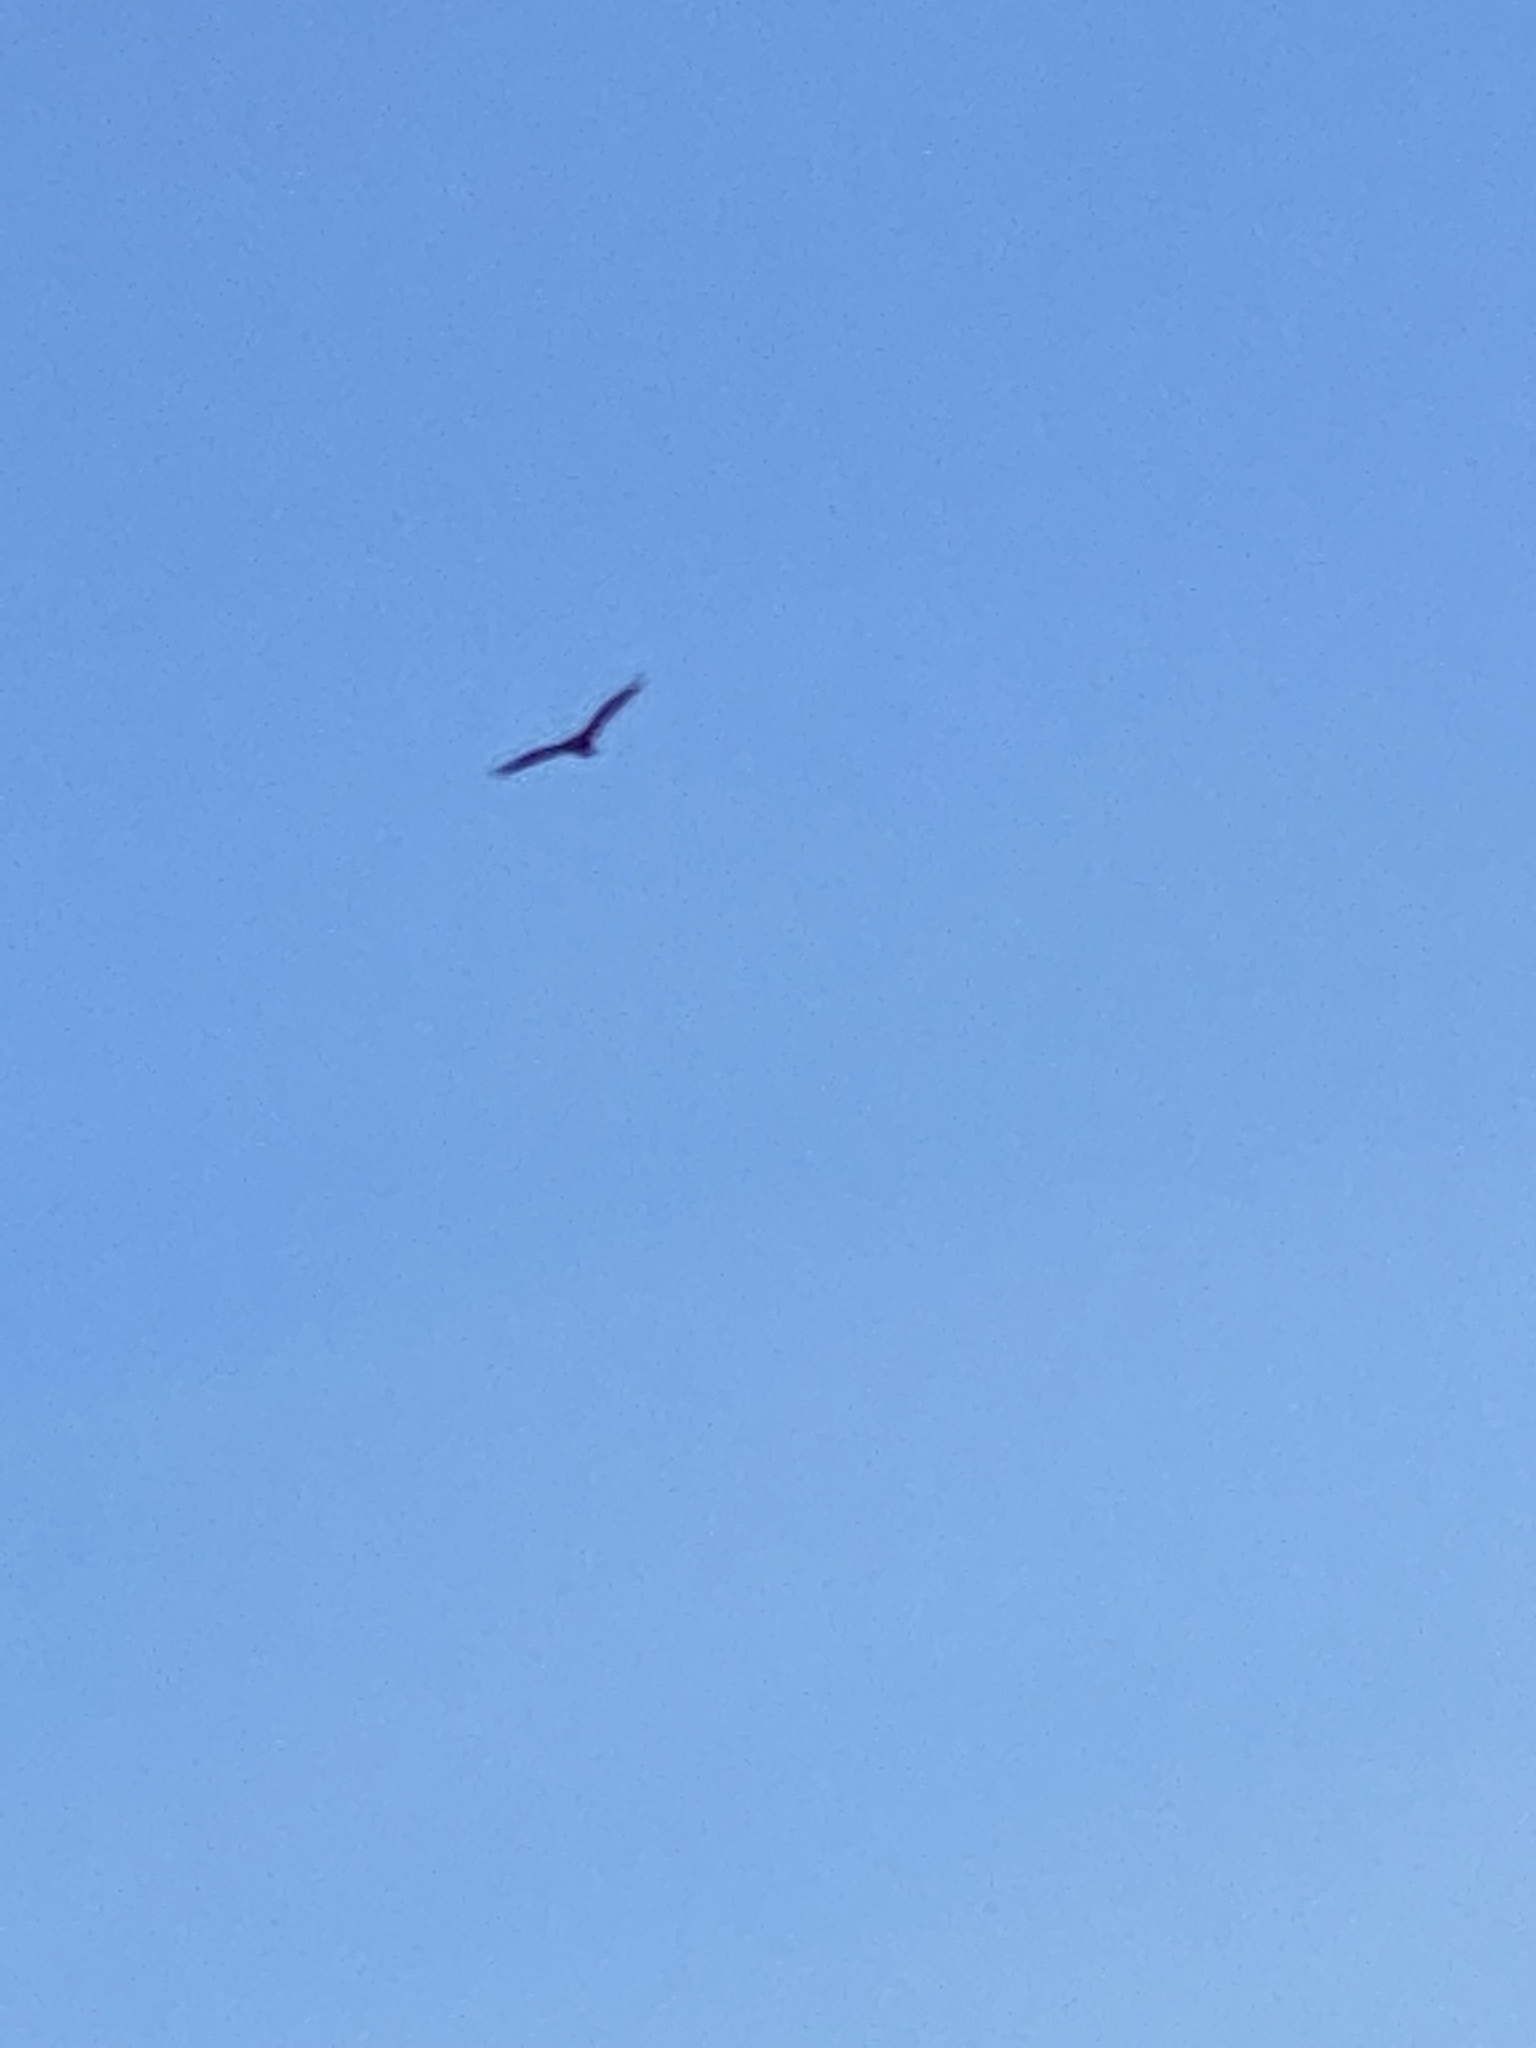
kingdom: Animalia
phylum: Chordata
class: Aves
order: Accipitriformes
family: Cathartidae
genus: Cathartes
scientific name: Cathartes aura
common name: Turkey vulture
